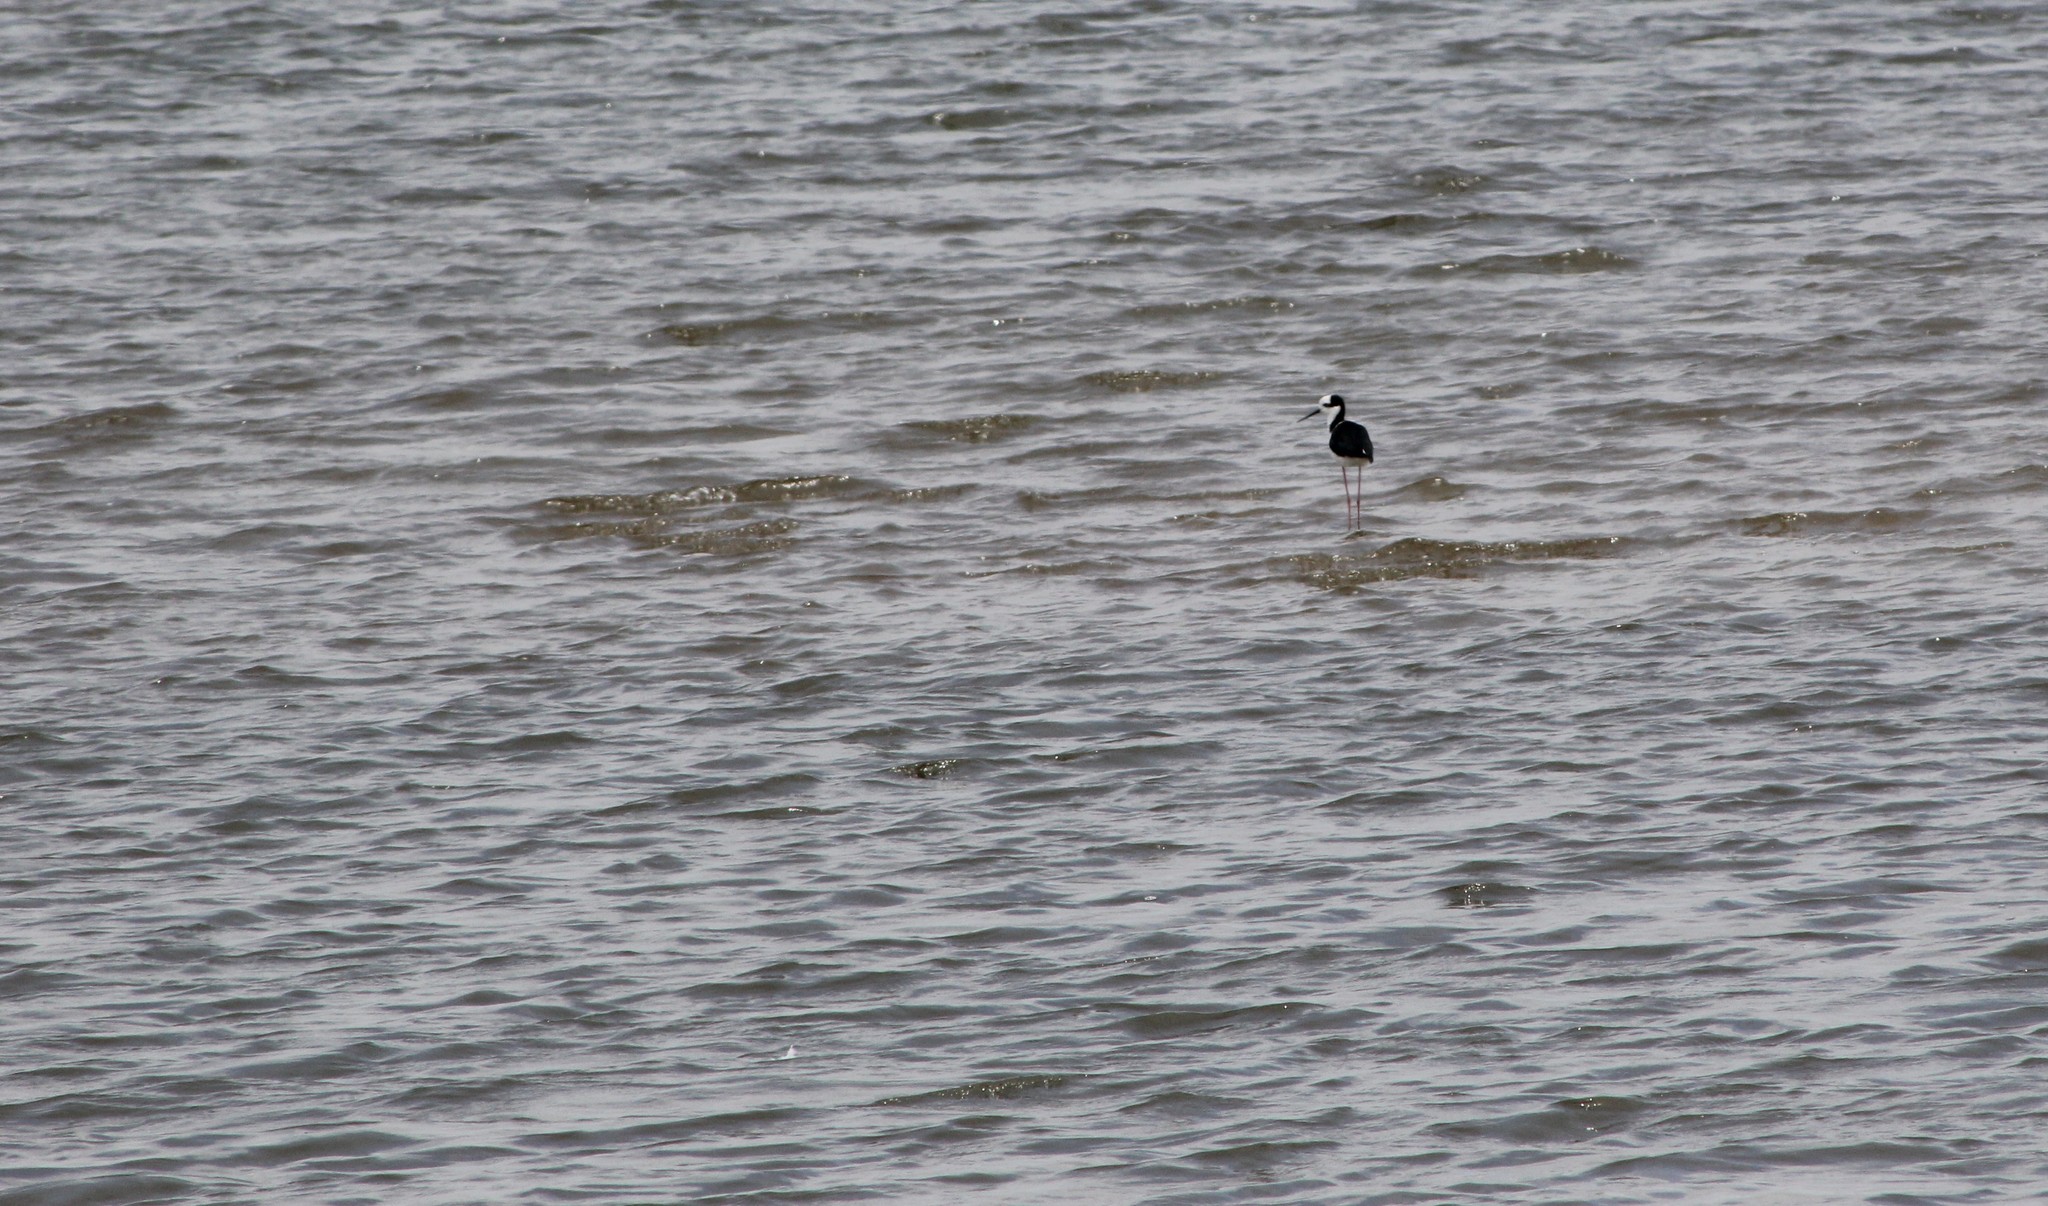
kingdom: Animalia
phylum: Chordata
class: Aves
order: Charadriiformes
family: Recurvirostridae
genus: Himantopus
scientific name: Himantopus mexicanus
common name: Black-necked stilt
